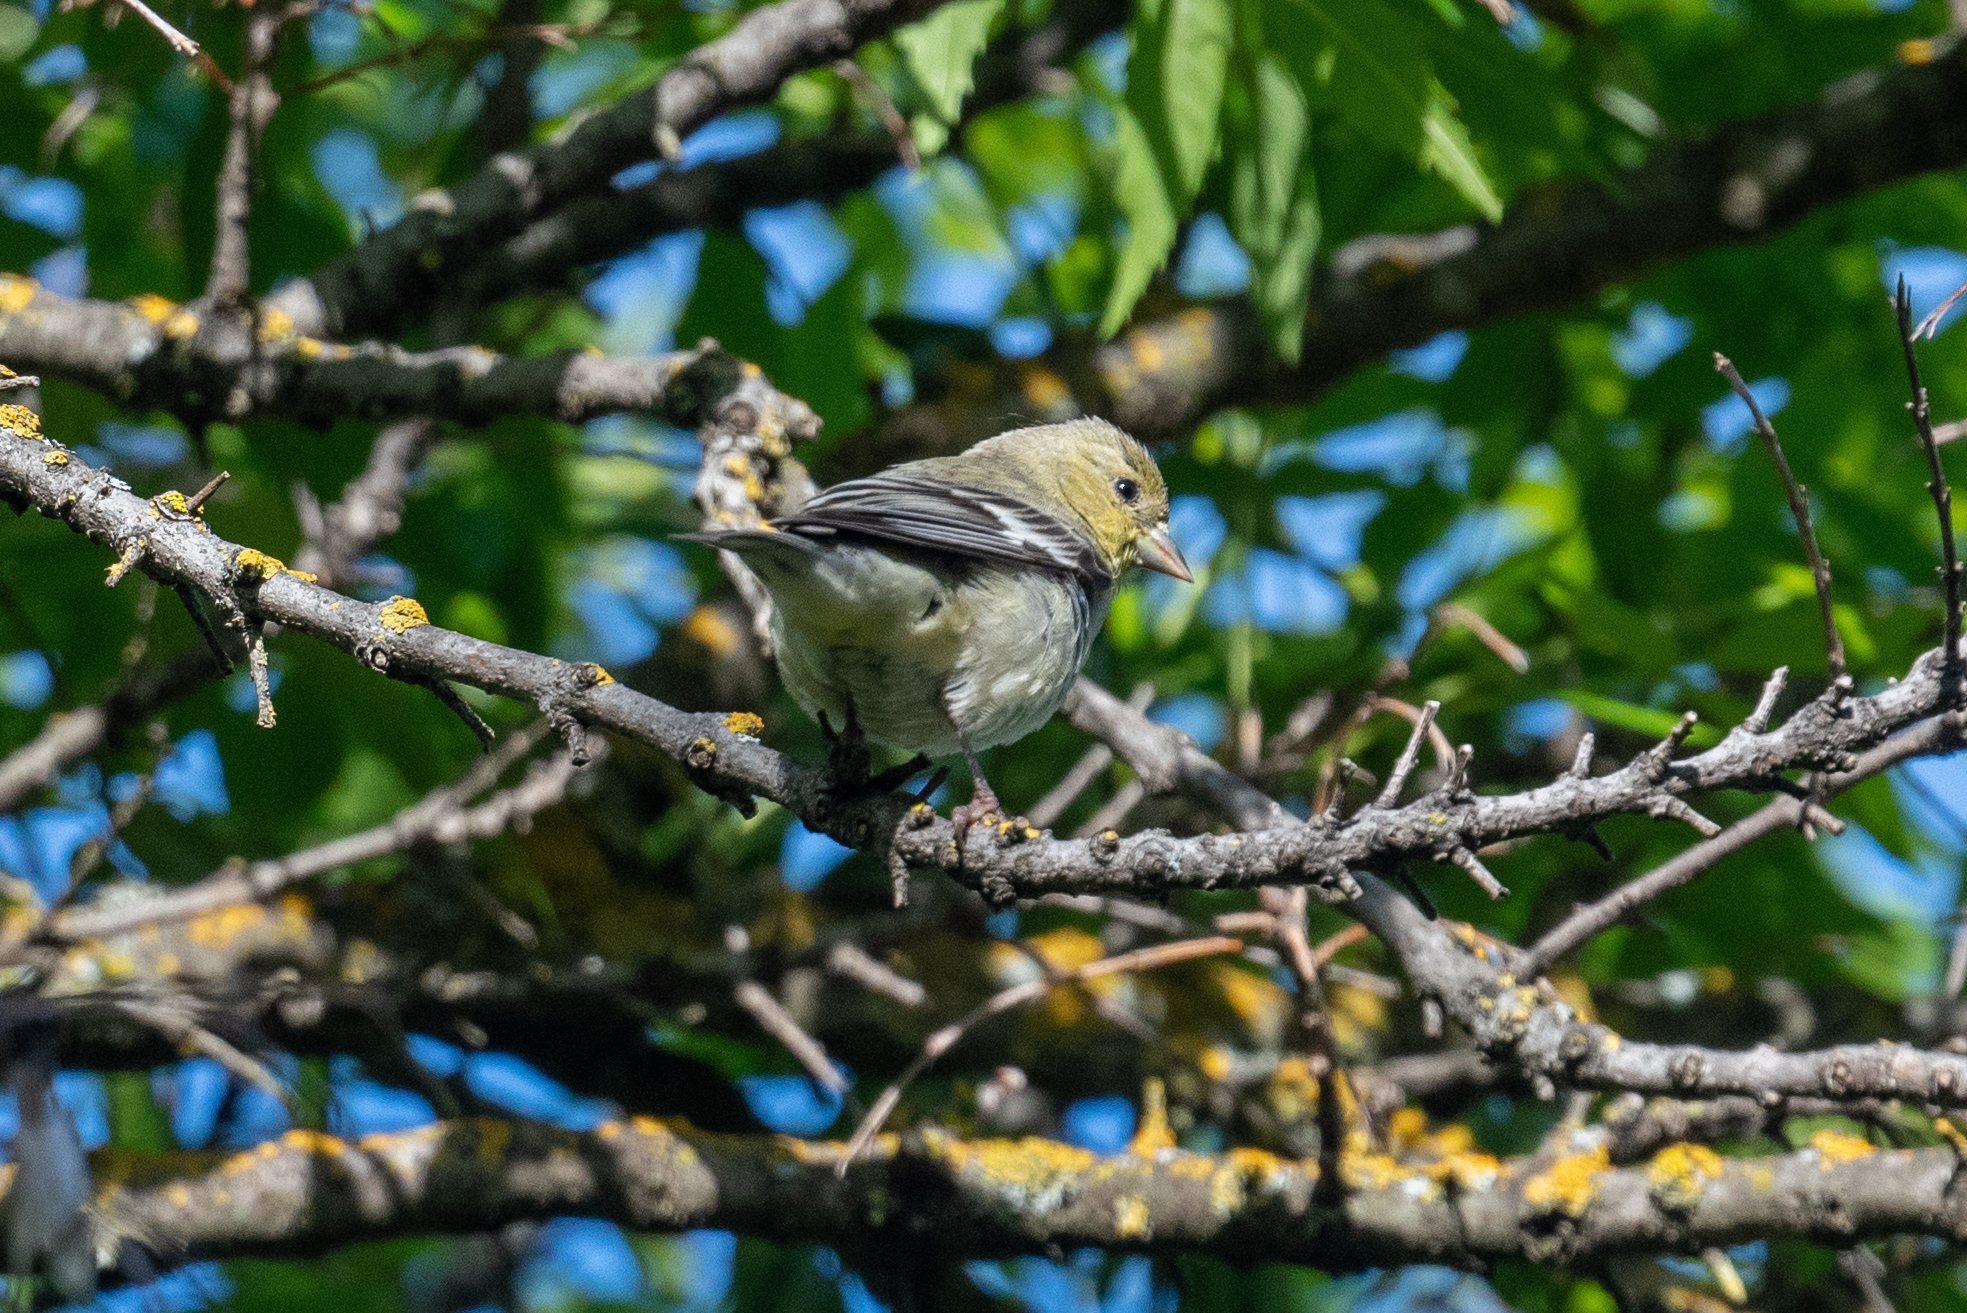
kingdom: Animalia
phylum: Chordata
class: Aves
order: Passeriformes
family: Fringillidae
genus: Spinus
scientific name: Spinus psaltria
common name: Lesser goldfinch
